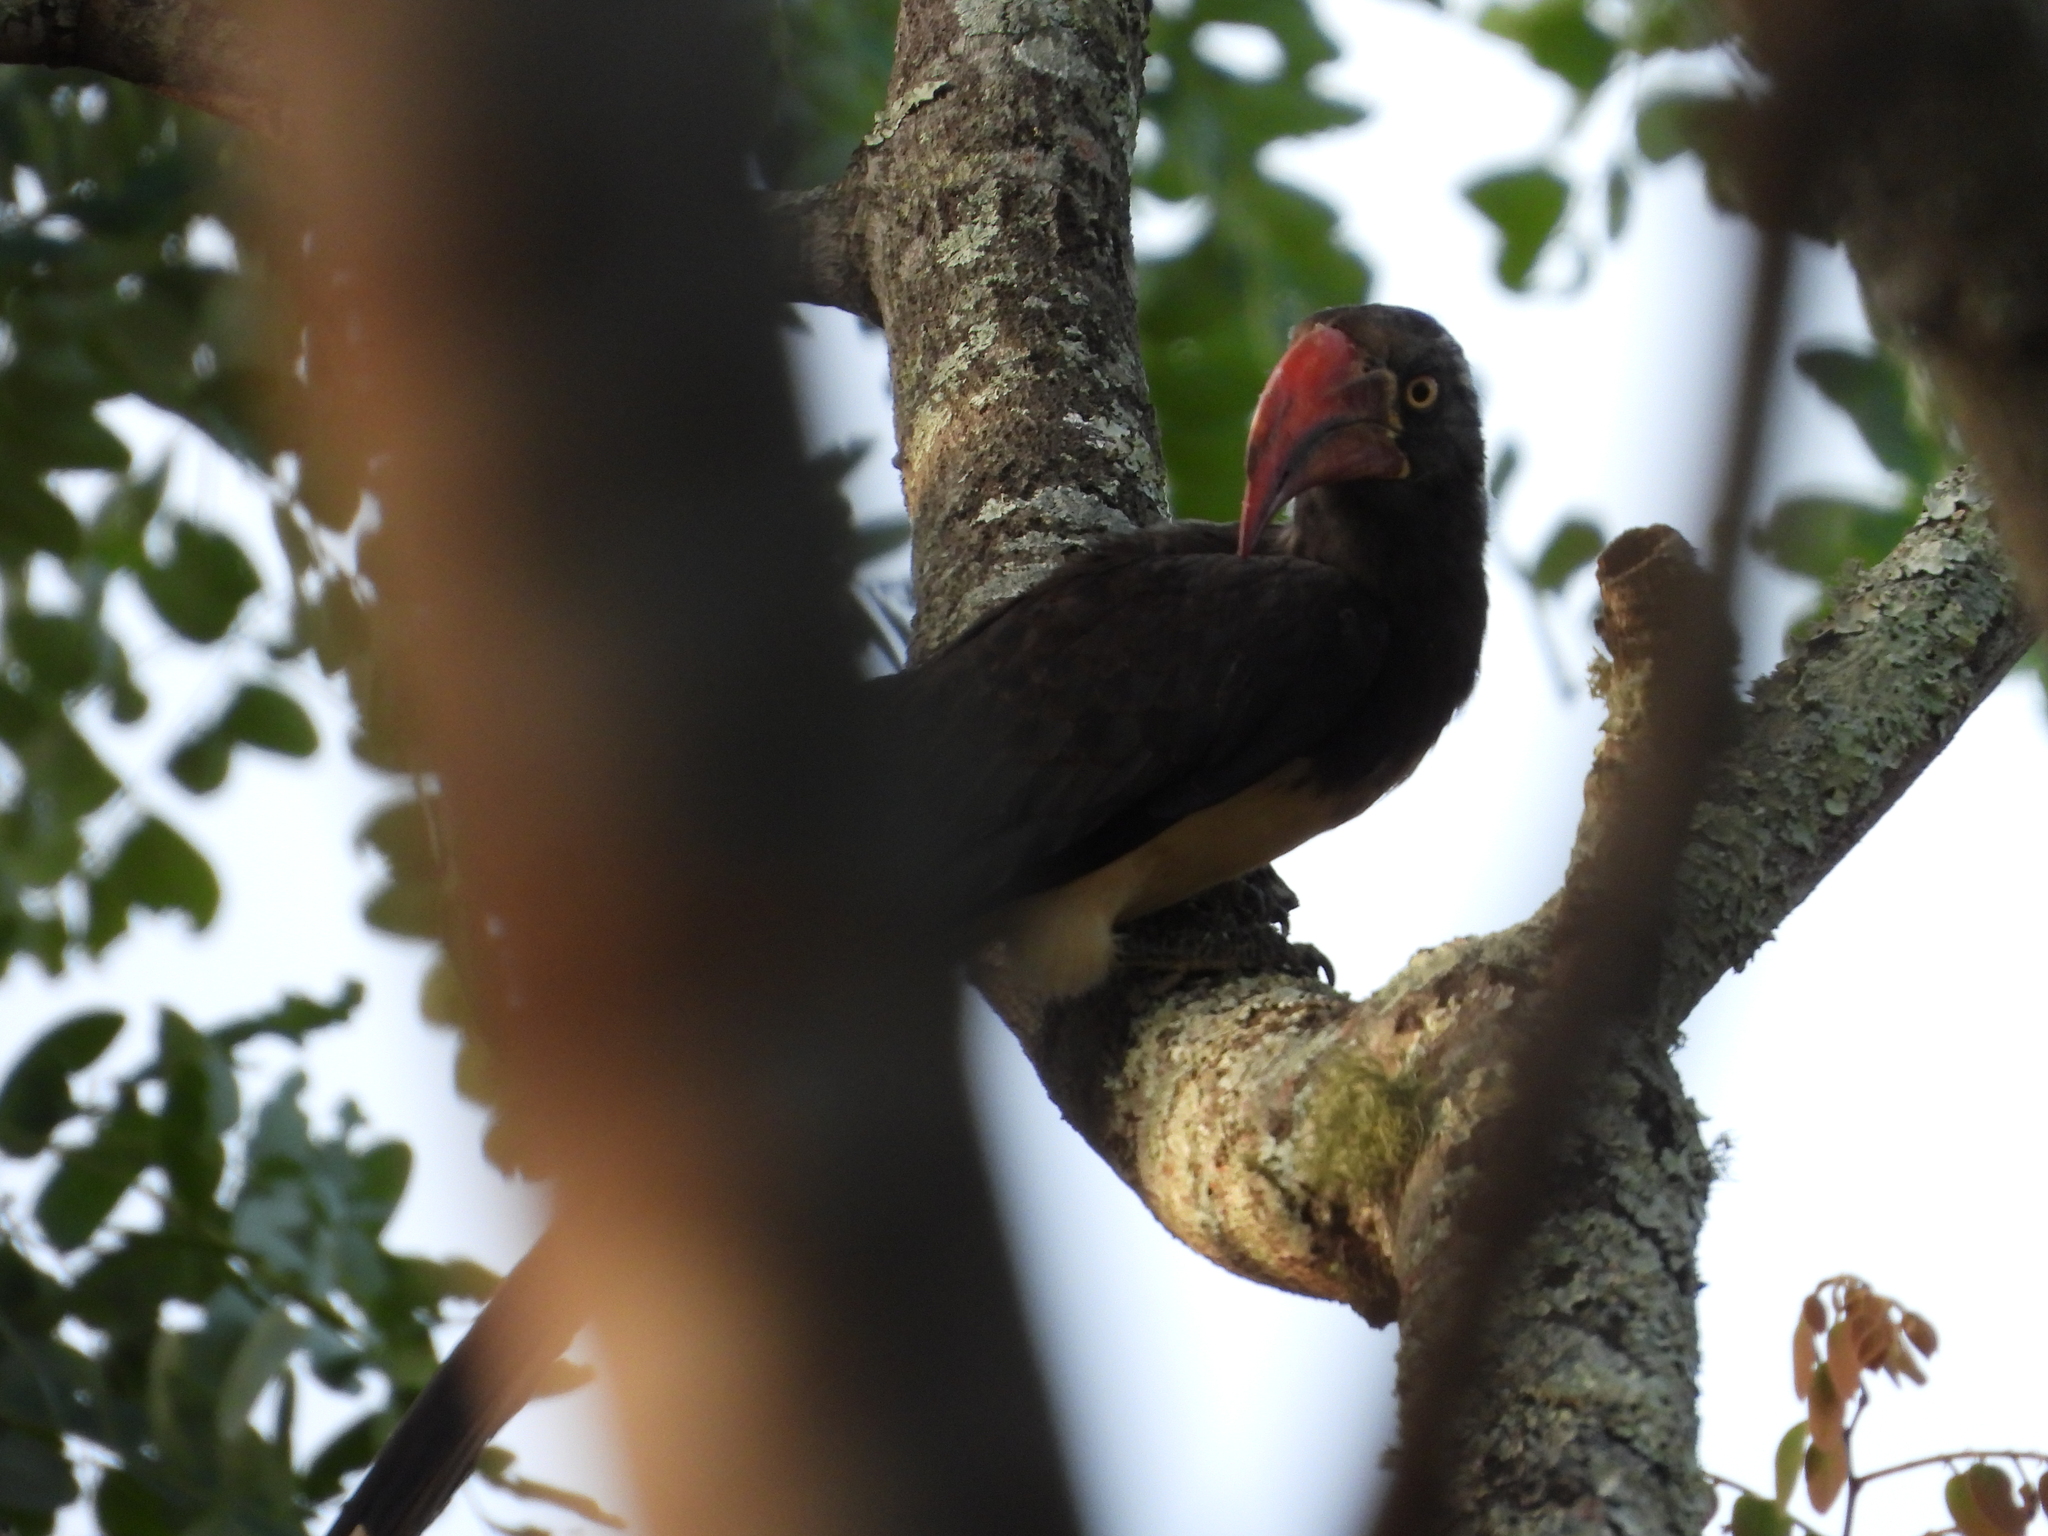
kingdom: Animalia
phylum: Chordata
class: Aves
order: Bucerotiformes
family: Bucerotidae
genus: Lophoceros
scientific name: Lophoceros alboterminatus
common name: Crowned hornbill
